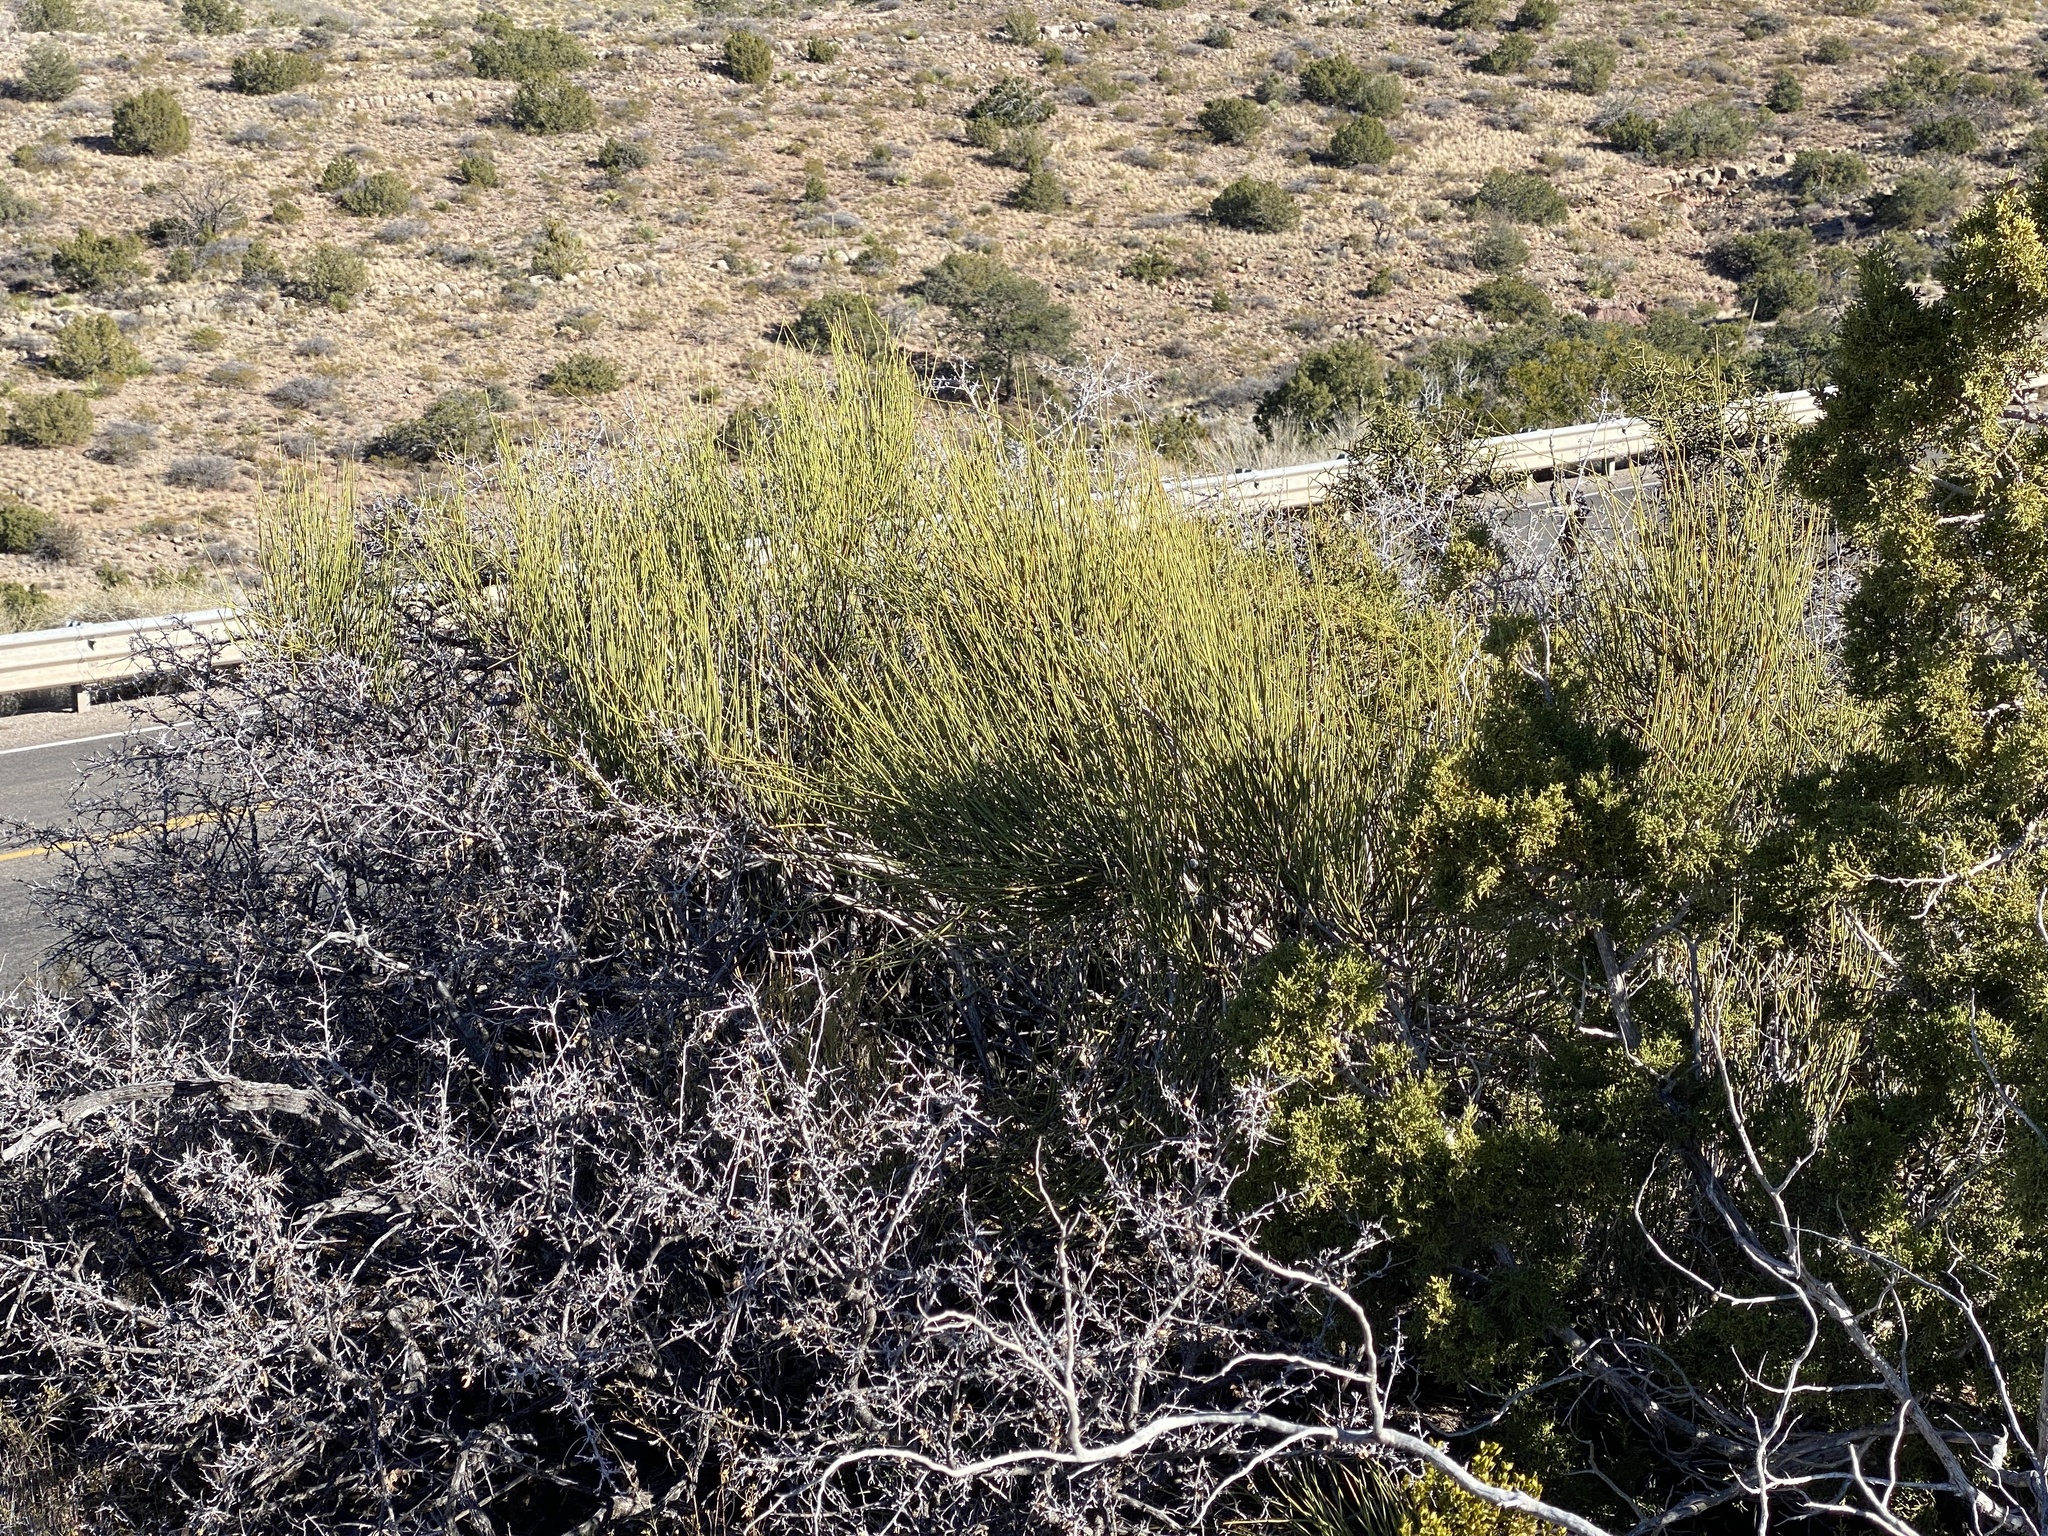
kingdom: Plantae
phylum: Tracheophyta
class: Gnetopsida
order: Ephedrales
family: Ephedraceae
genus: Ephedra
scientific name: Ephedra trifurca
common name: Mexican-tea
